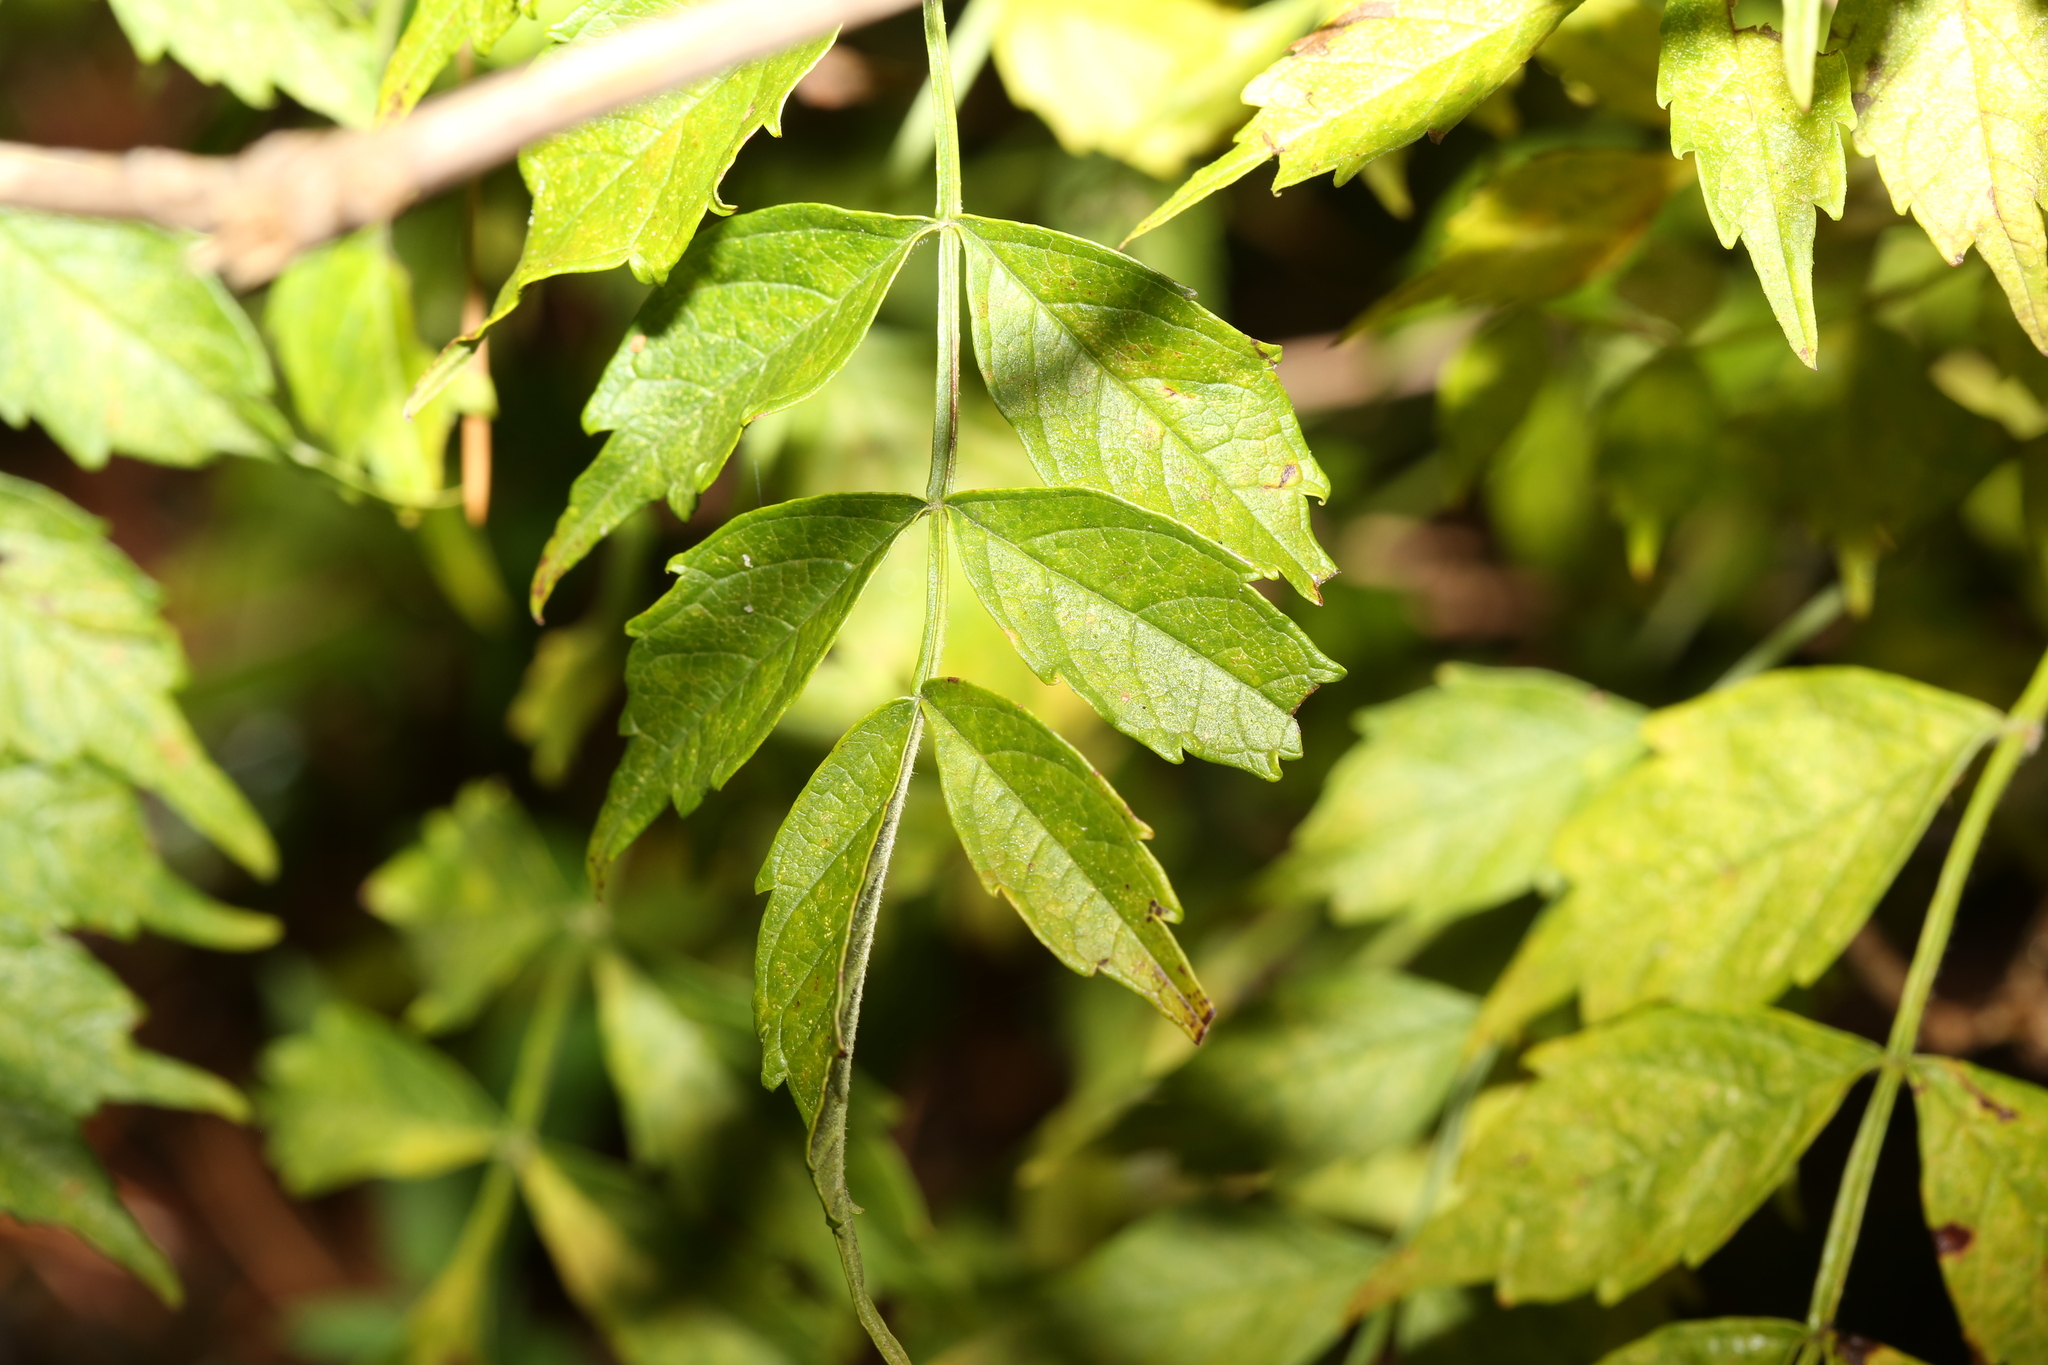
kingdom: Plantae
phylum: Tracheophyta
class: Magnoliopsida
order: Lamiales
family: Bignoniaceae
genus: Campsis
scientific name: Campsis radicans
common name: Trumpet-creeper
